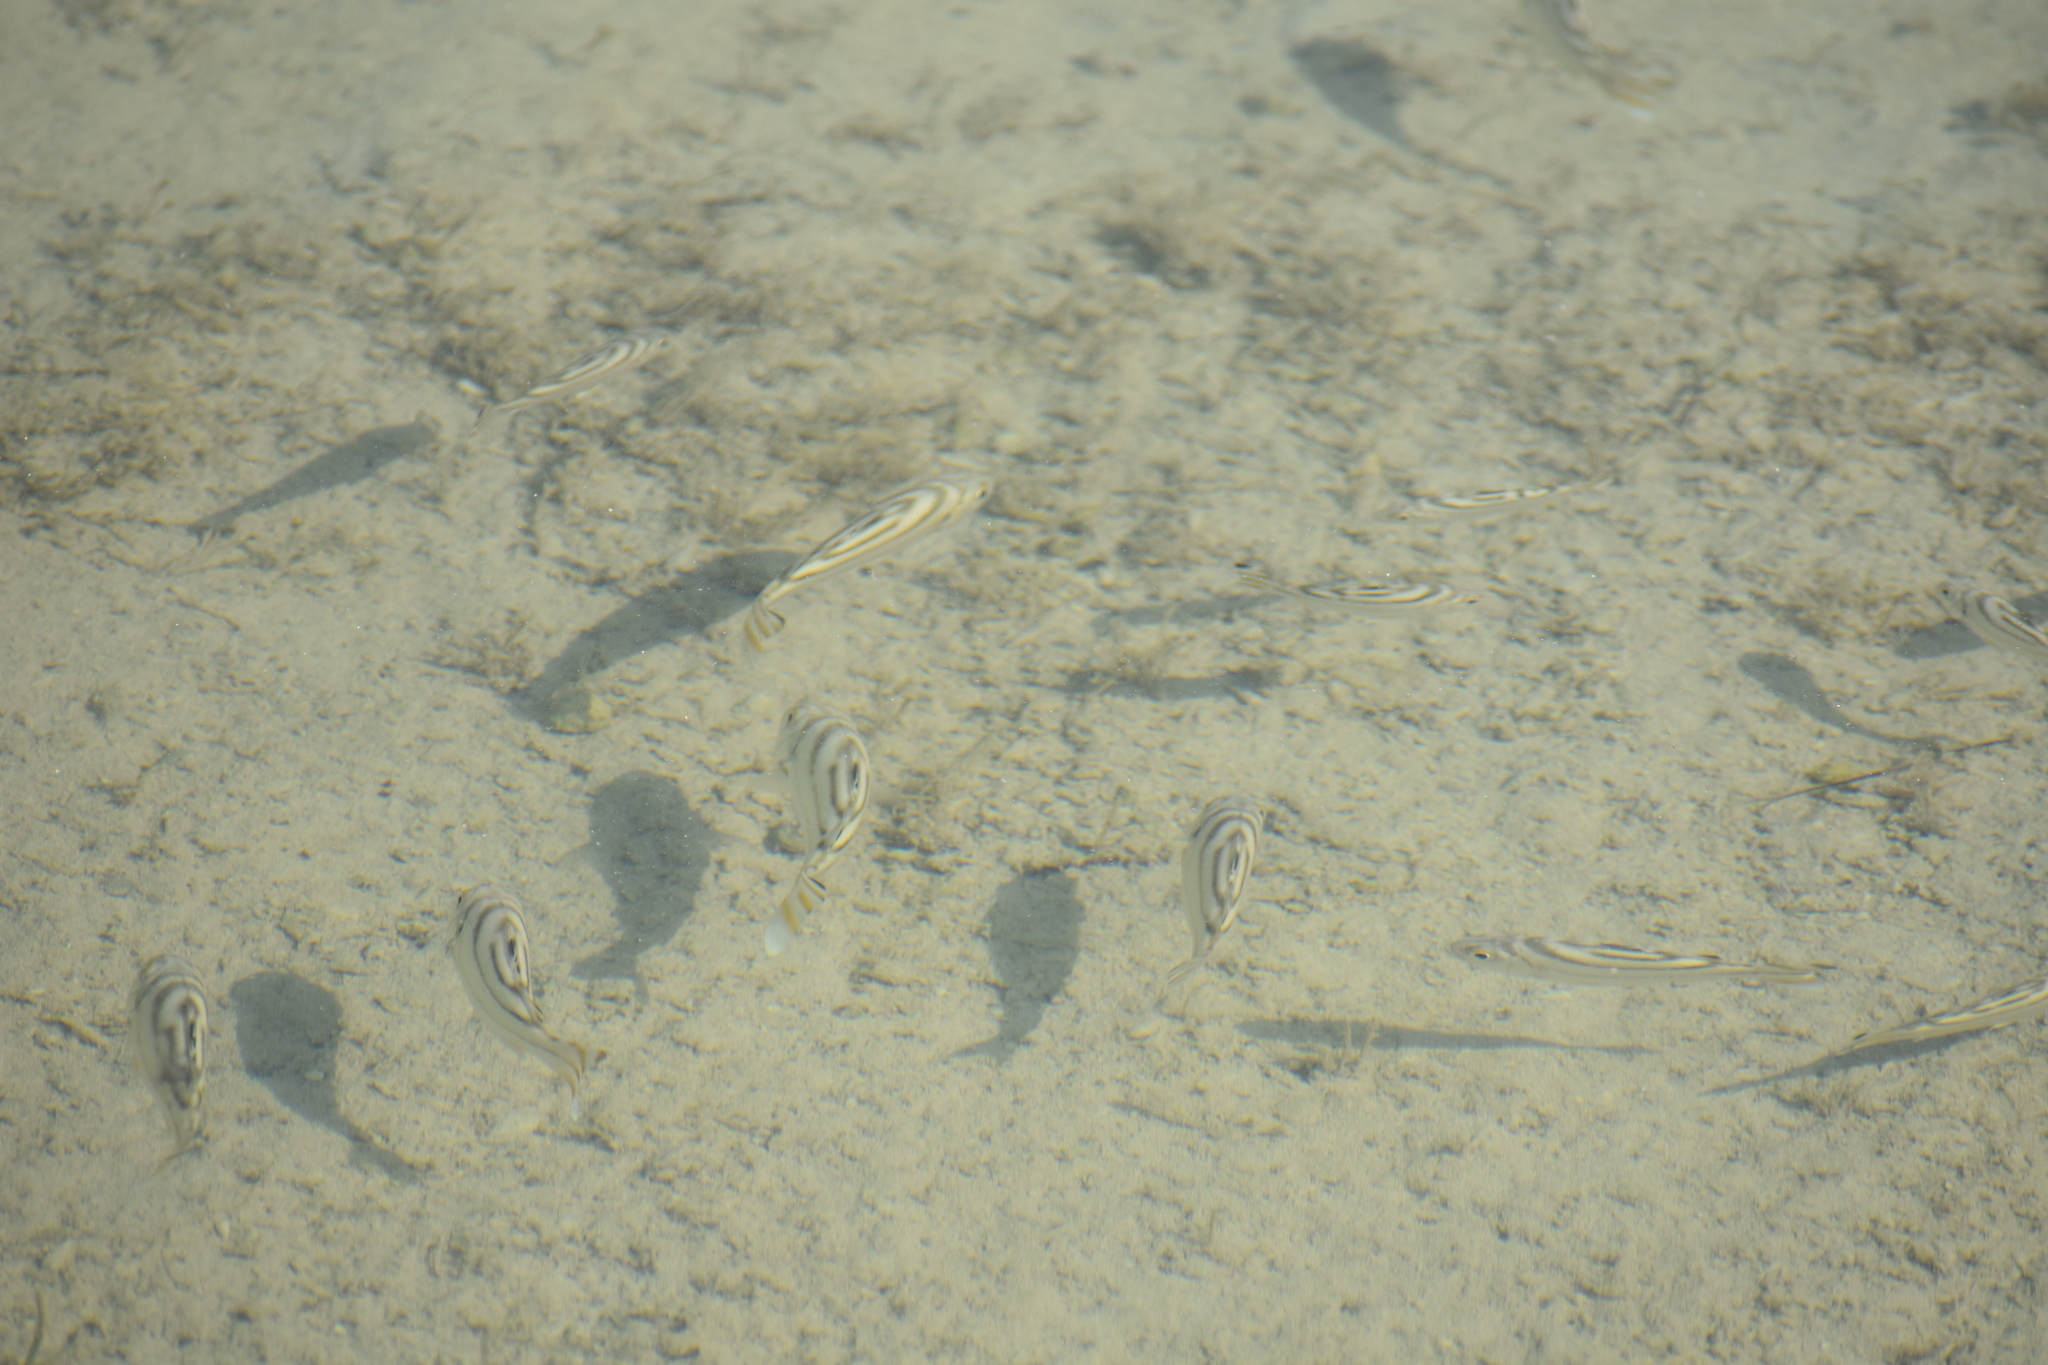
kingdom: Animalia
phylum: Chordata
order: Perciformes
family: Terapontidae
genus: Terapon
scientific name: Terapon jarbua
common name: Jarbua terapon
